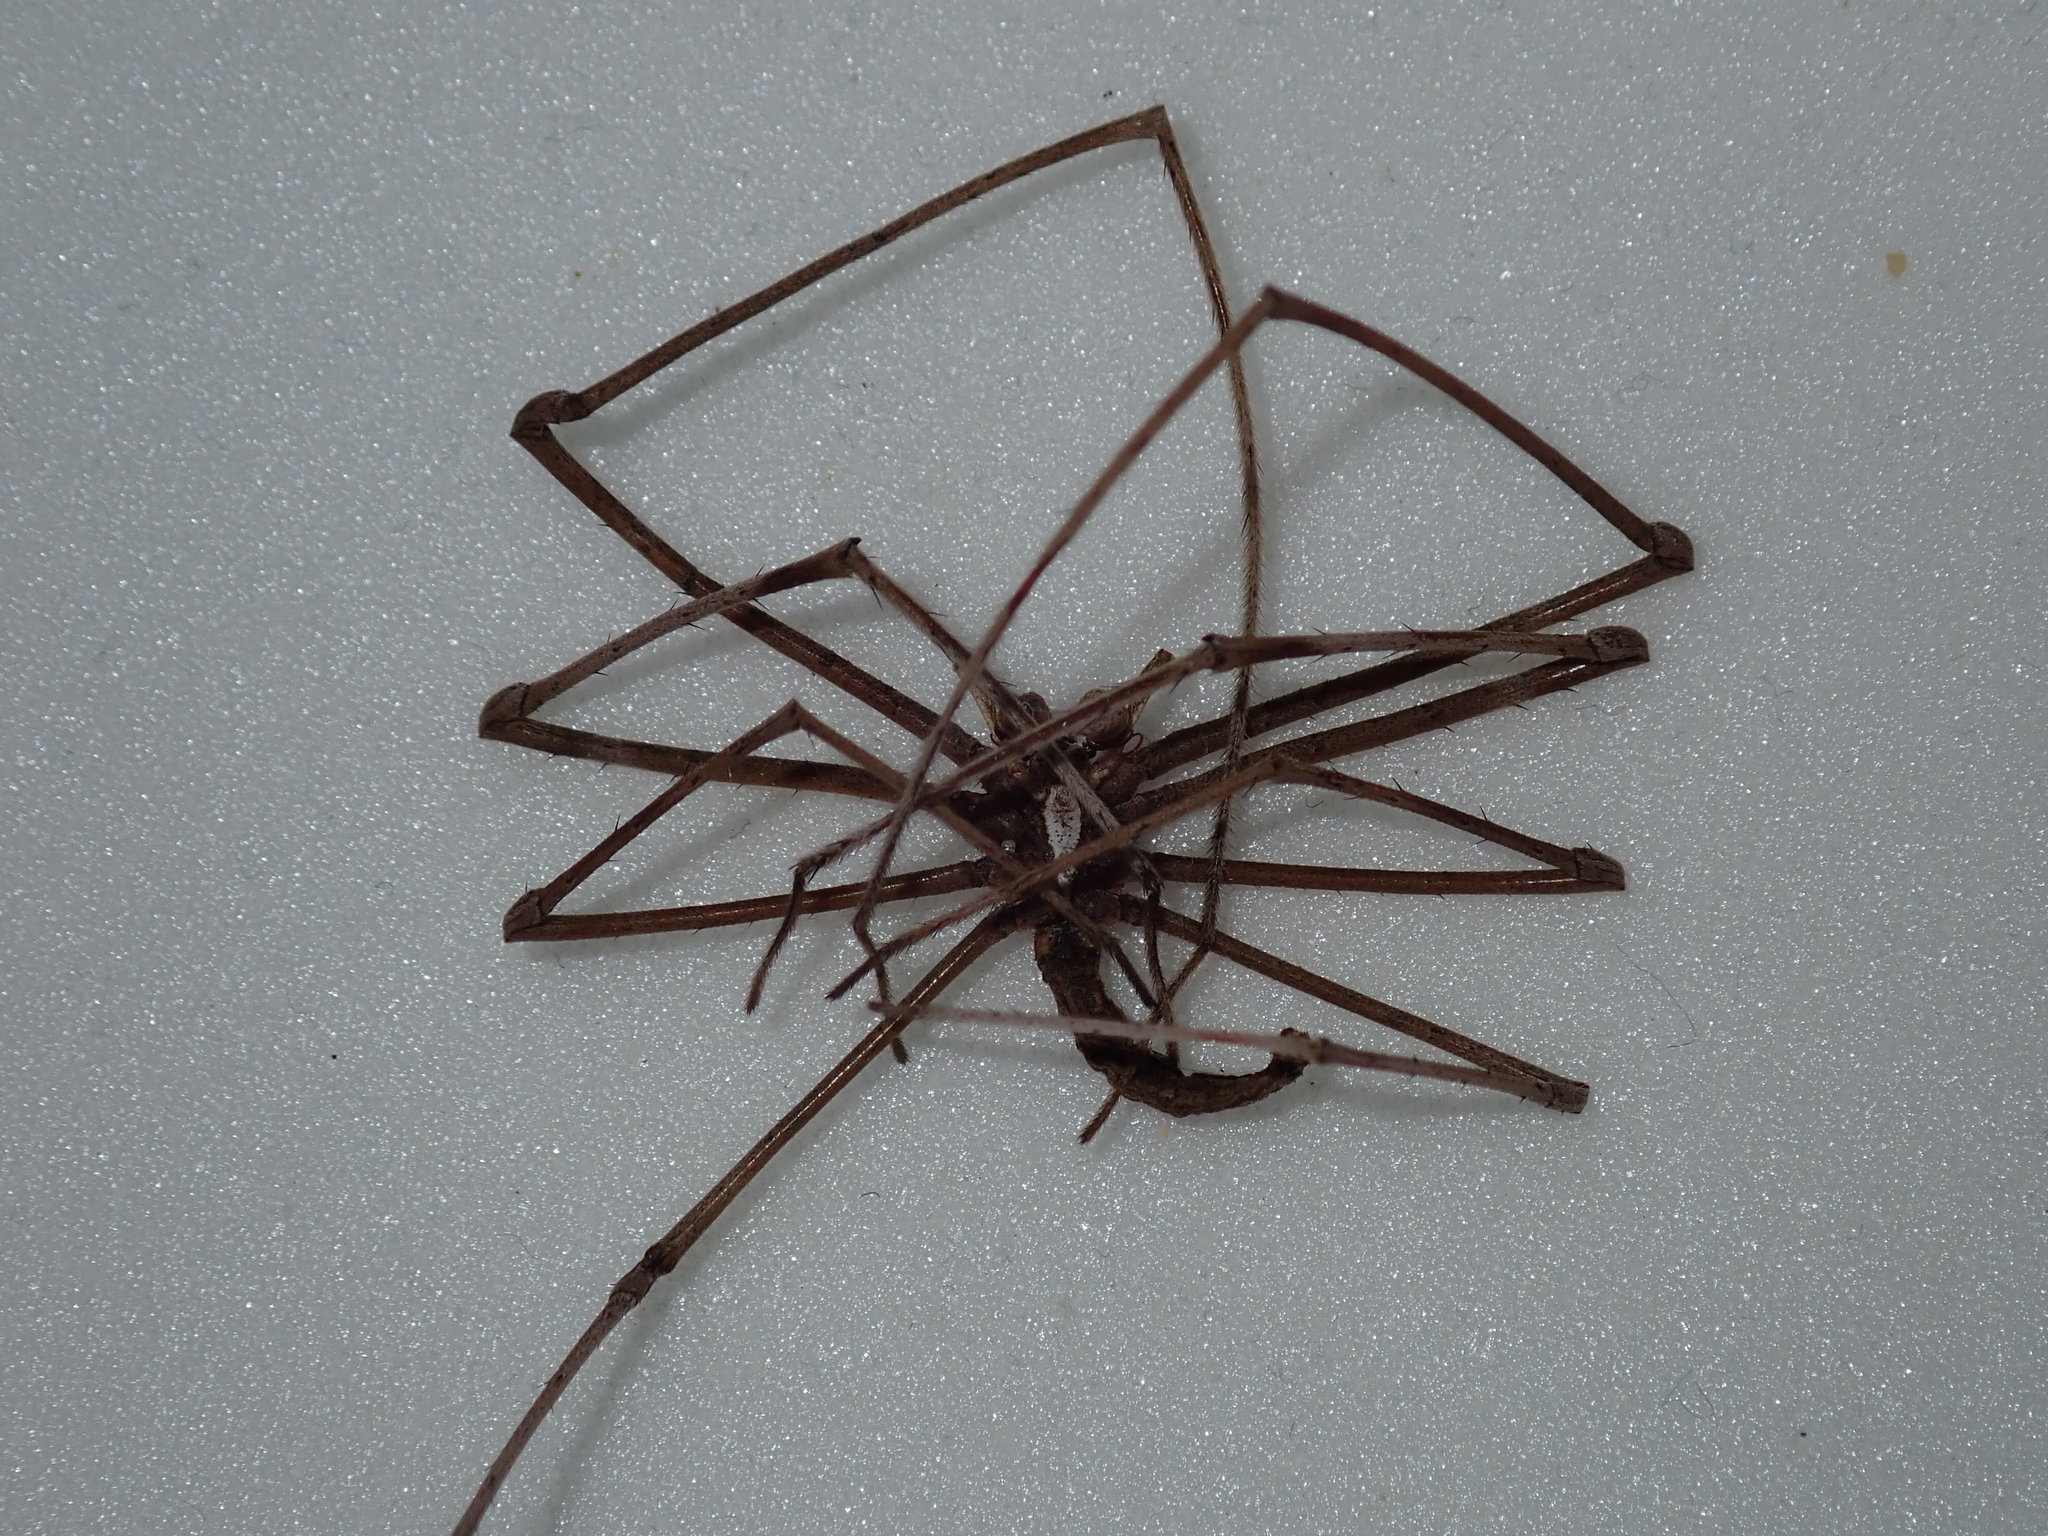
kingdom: Animalia
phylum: Arthropoda
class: Arachnida
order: Araneae
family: Deinopidae
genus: Deinopis
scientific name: Deinopis subrufa
